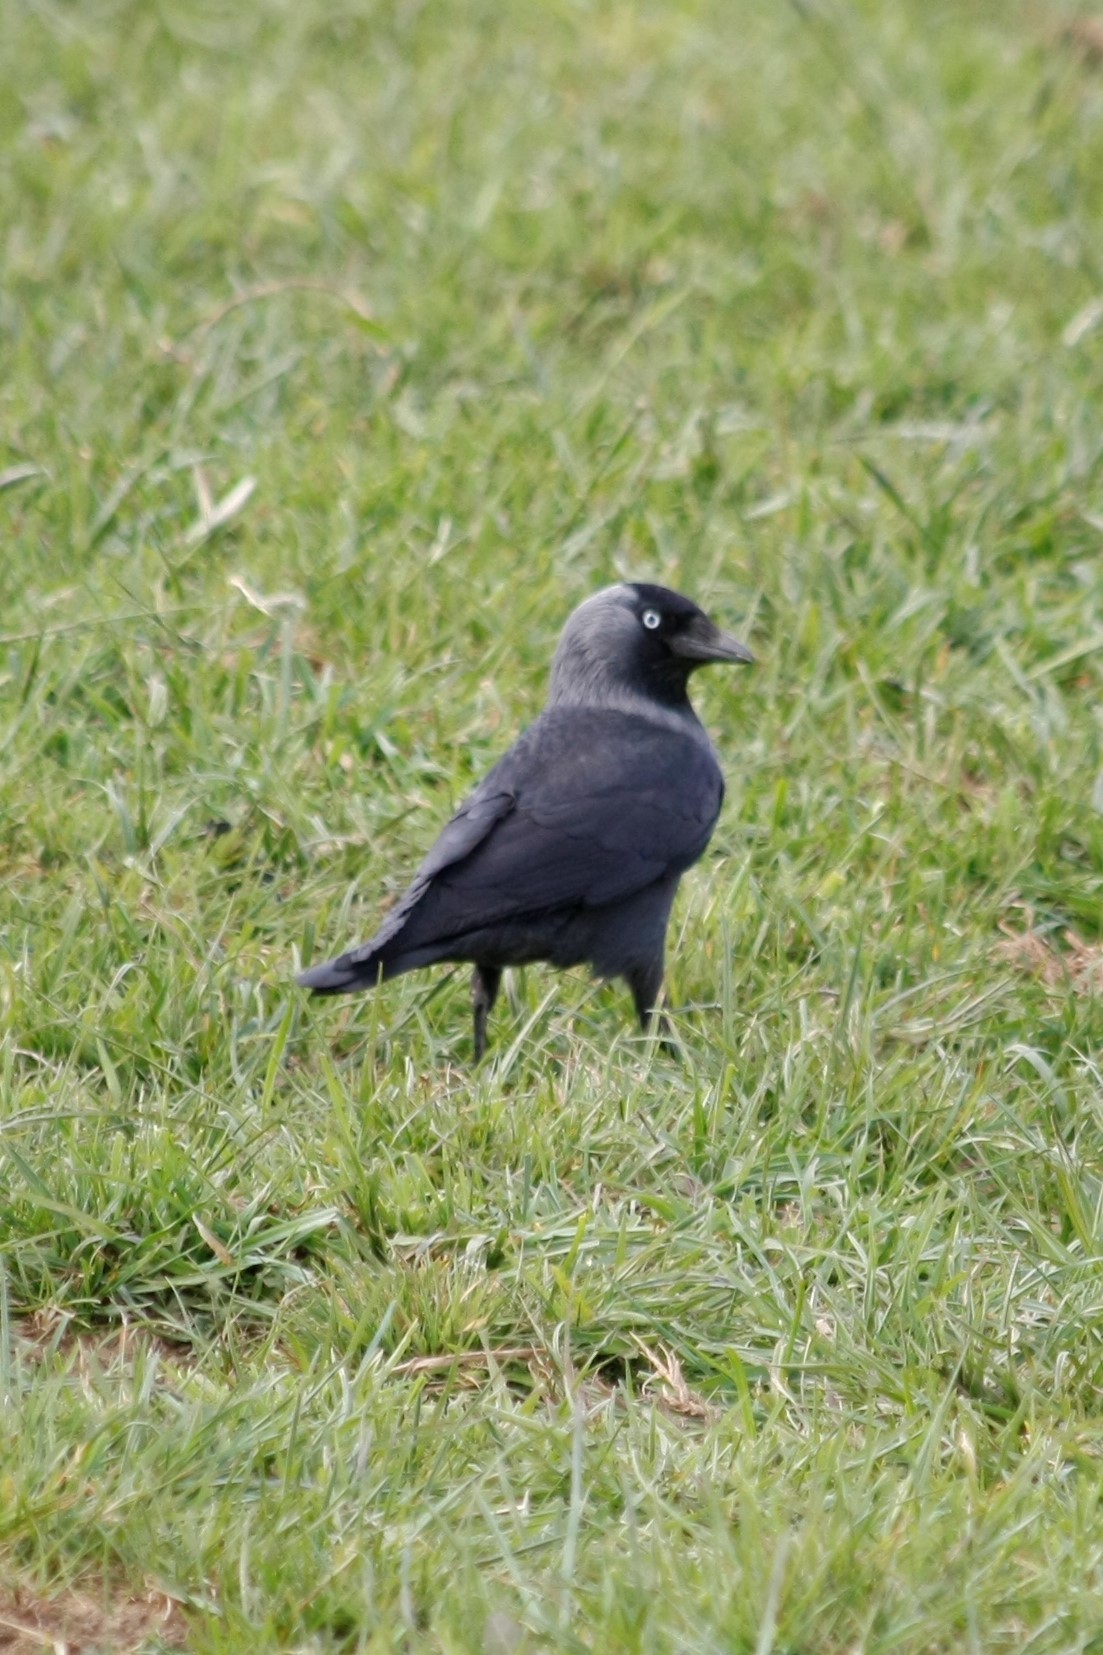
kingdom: Animalia
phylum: Chordata
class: Aves
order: Passeriformes
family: Corvidae
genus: Coloeus
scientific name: Coloeus monedula
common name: Western jackdaw
